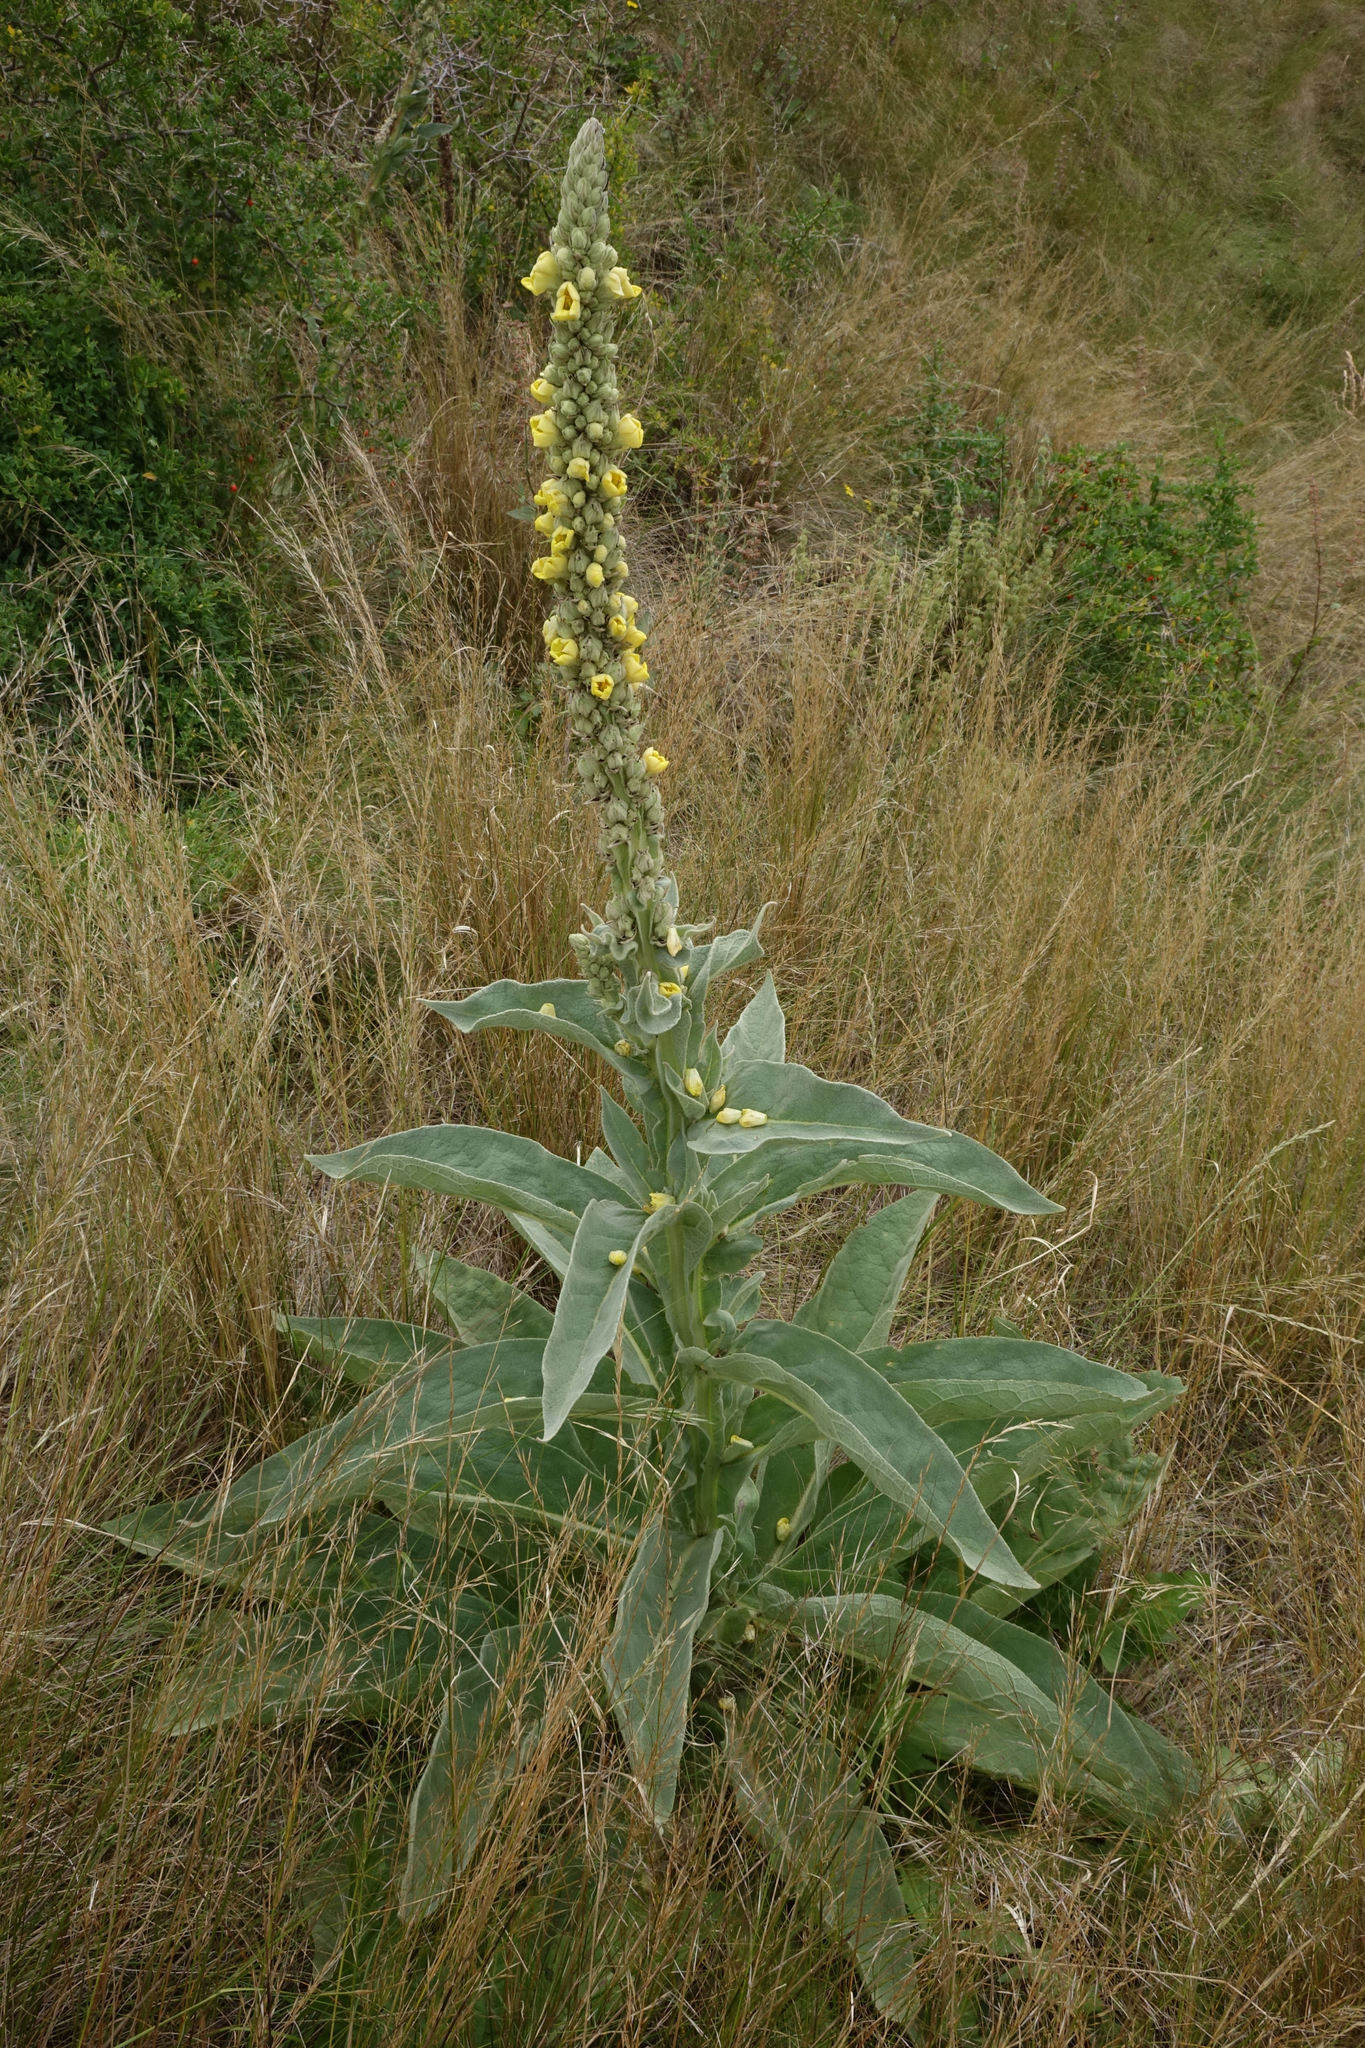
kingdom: Plantae
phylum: Tracheophyta
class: Magnoliopsida
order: Lamiales
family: Scrophulariaceae
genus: Verbascum
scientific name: Verbascum thapsus
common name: Common mullein
